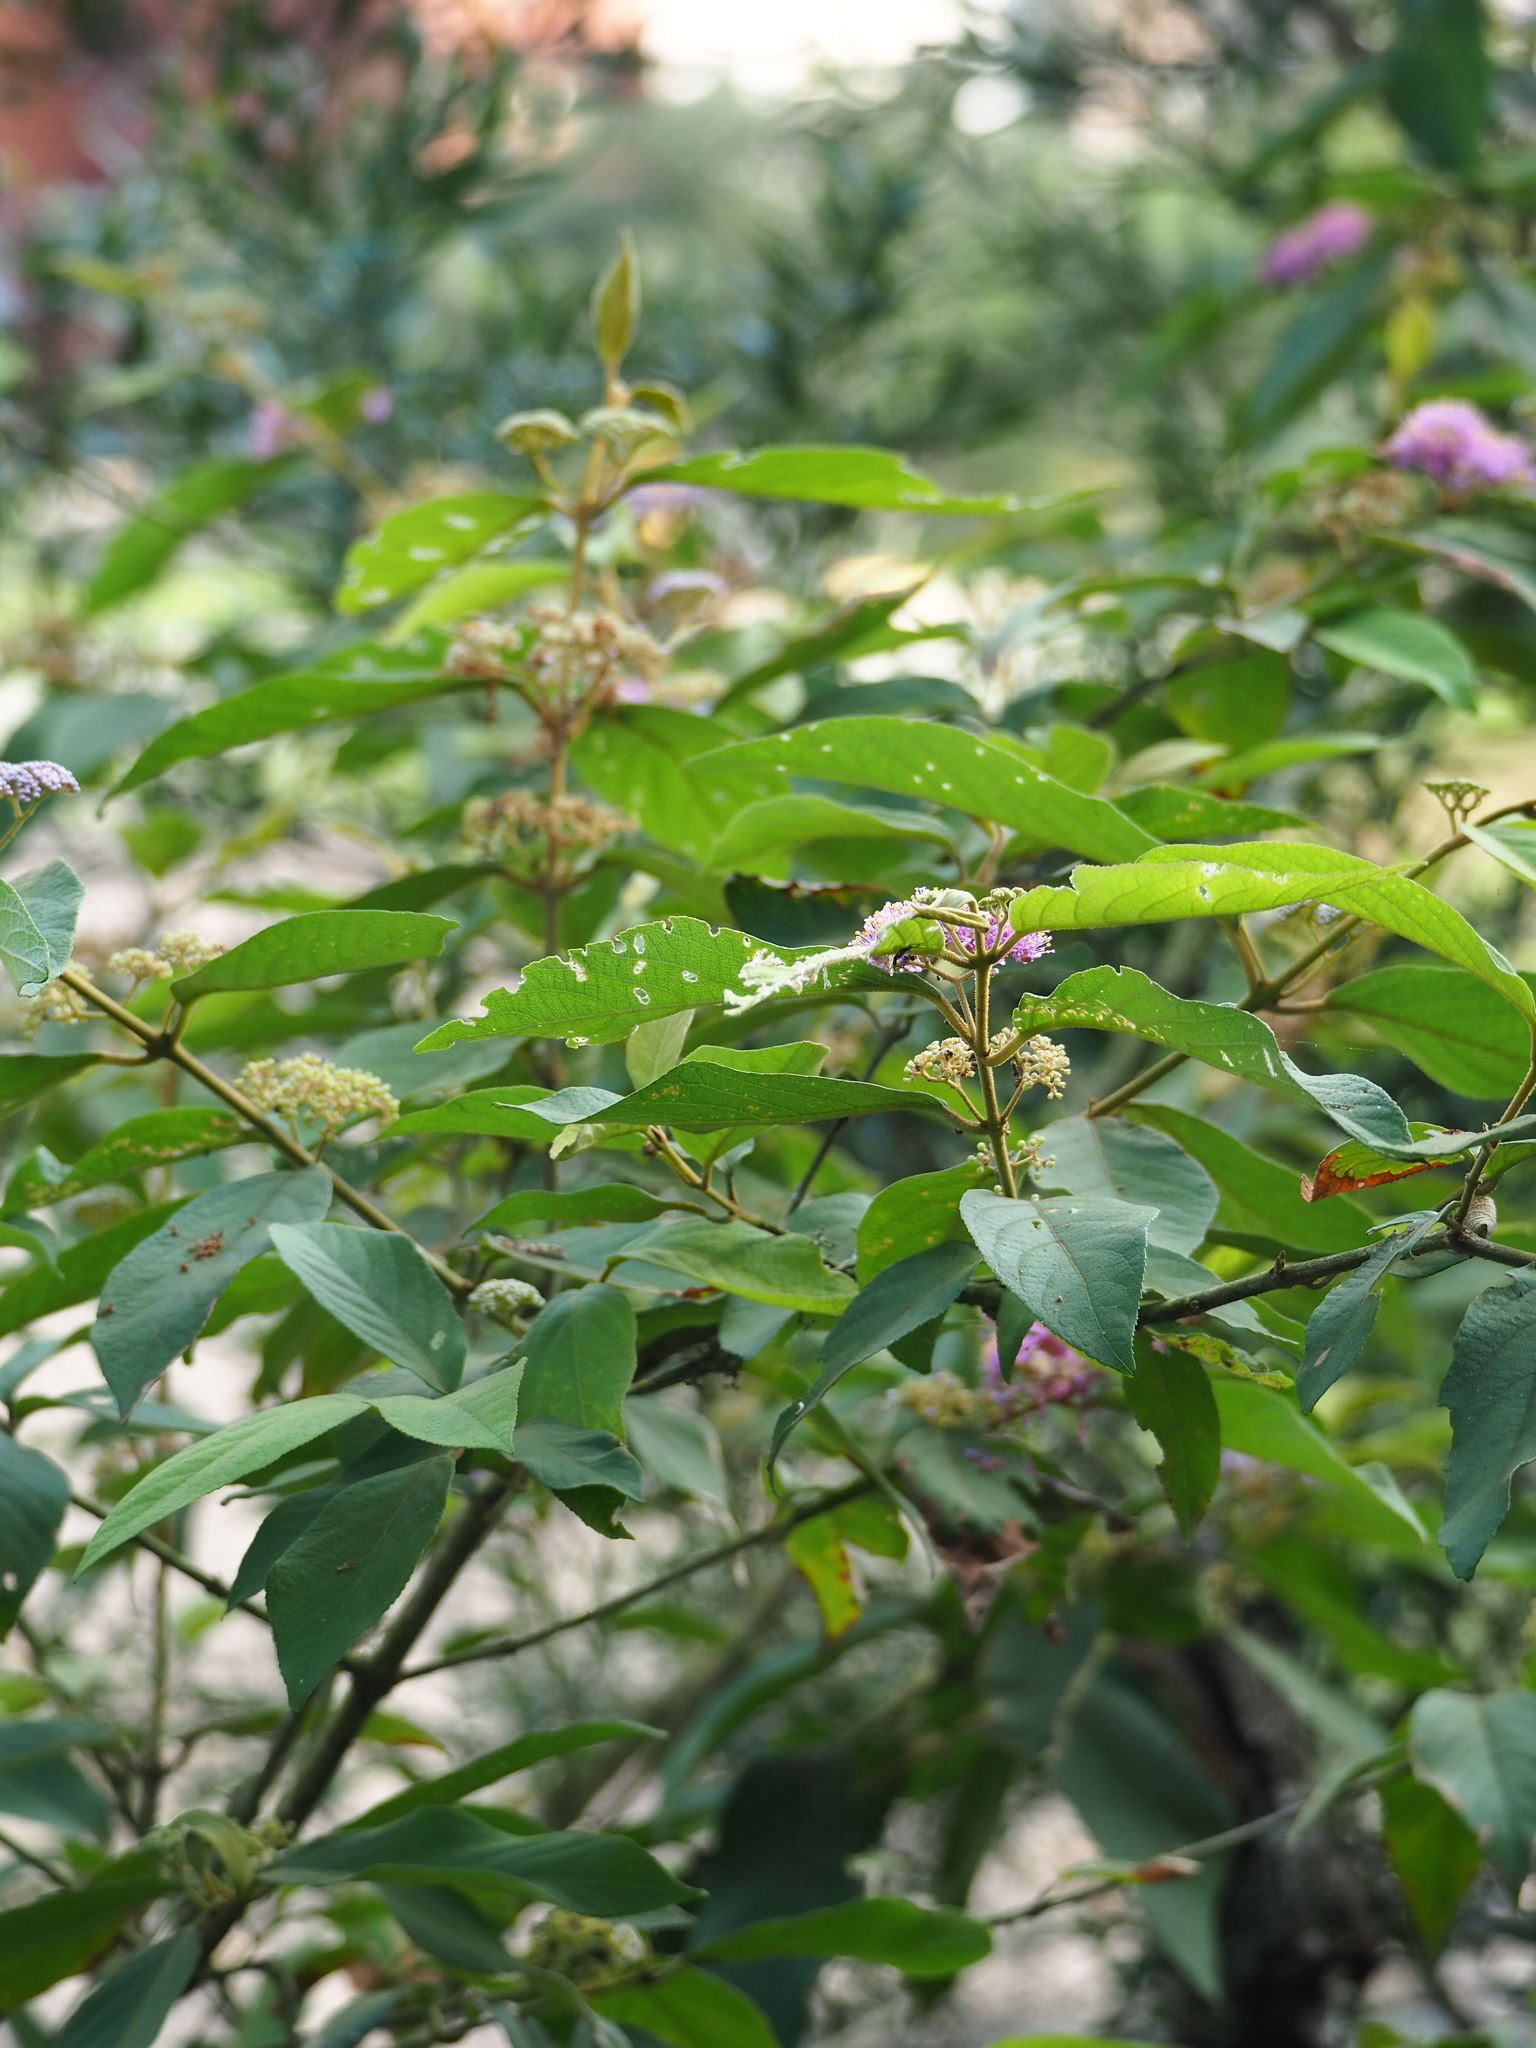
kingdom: Plantae
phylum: Tracheophyta
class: Magnoliopsida
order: Lamiales
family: Lamiaceae
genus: Callicarpa
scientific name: Callicarpa pedunculata
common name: Velvetleaf
